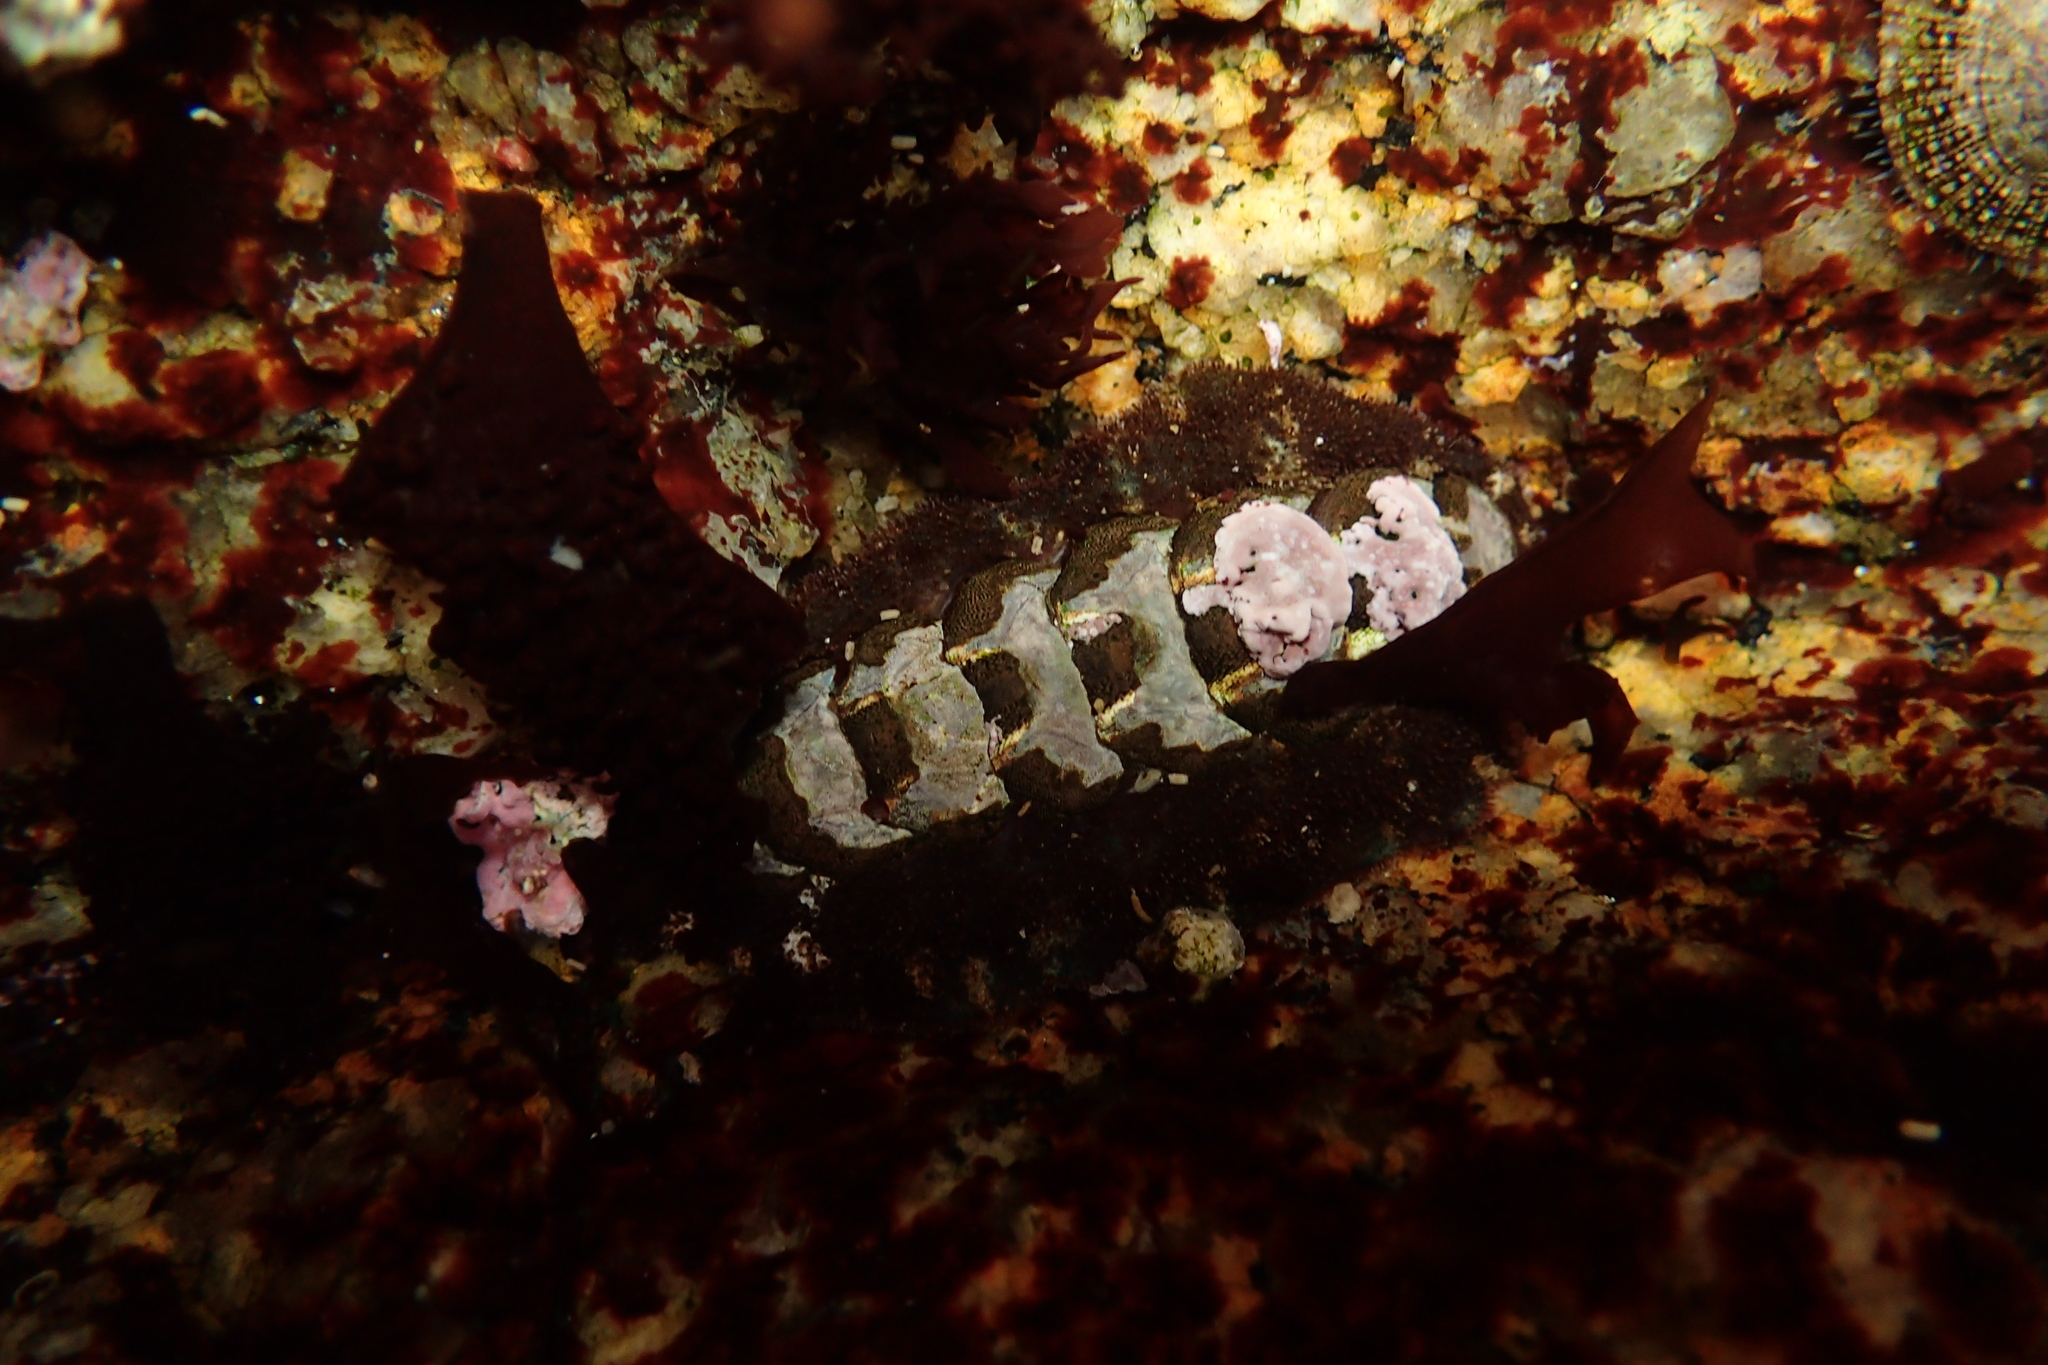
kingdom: Animalia
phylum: Mollusca
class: Polyplacophora
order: Chitonida
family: Tonicellidae
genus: Nuttallina
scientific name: Nuttallina californica
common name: California nuttall chiton
